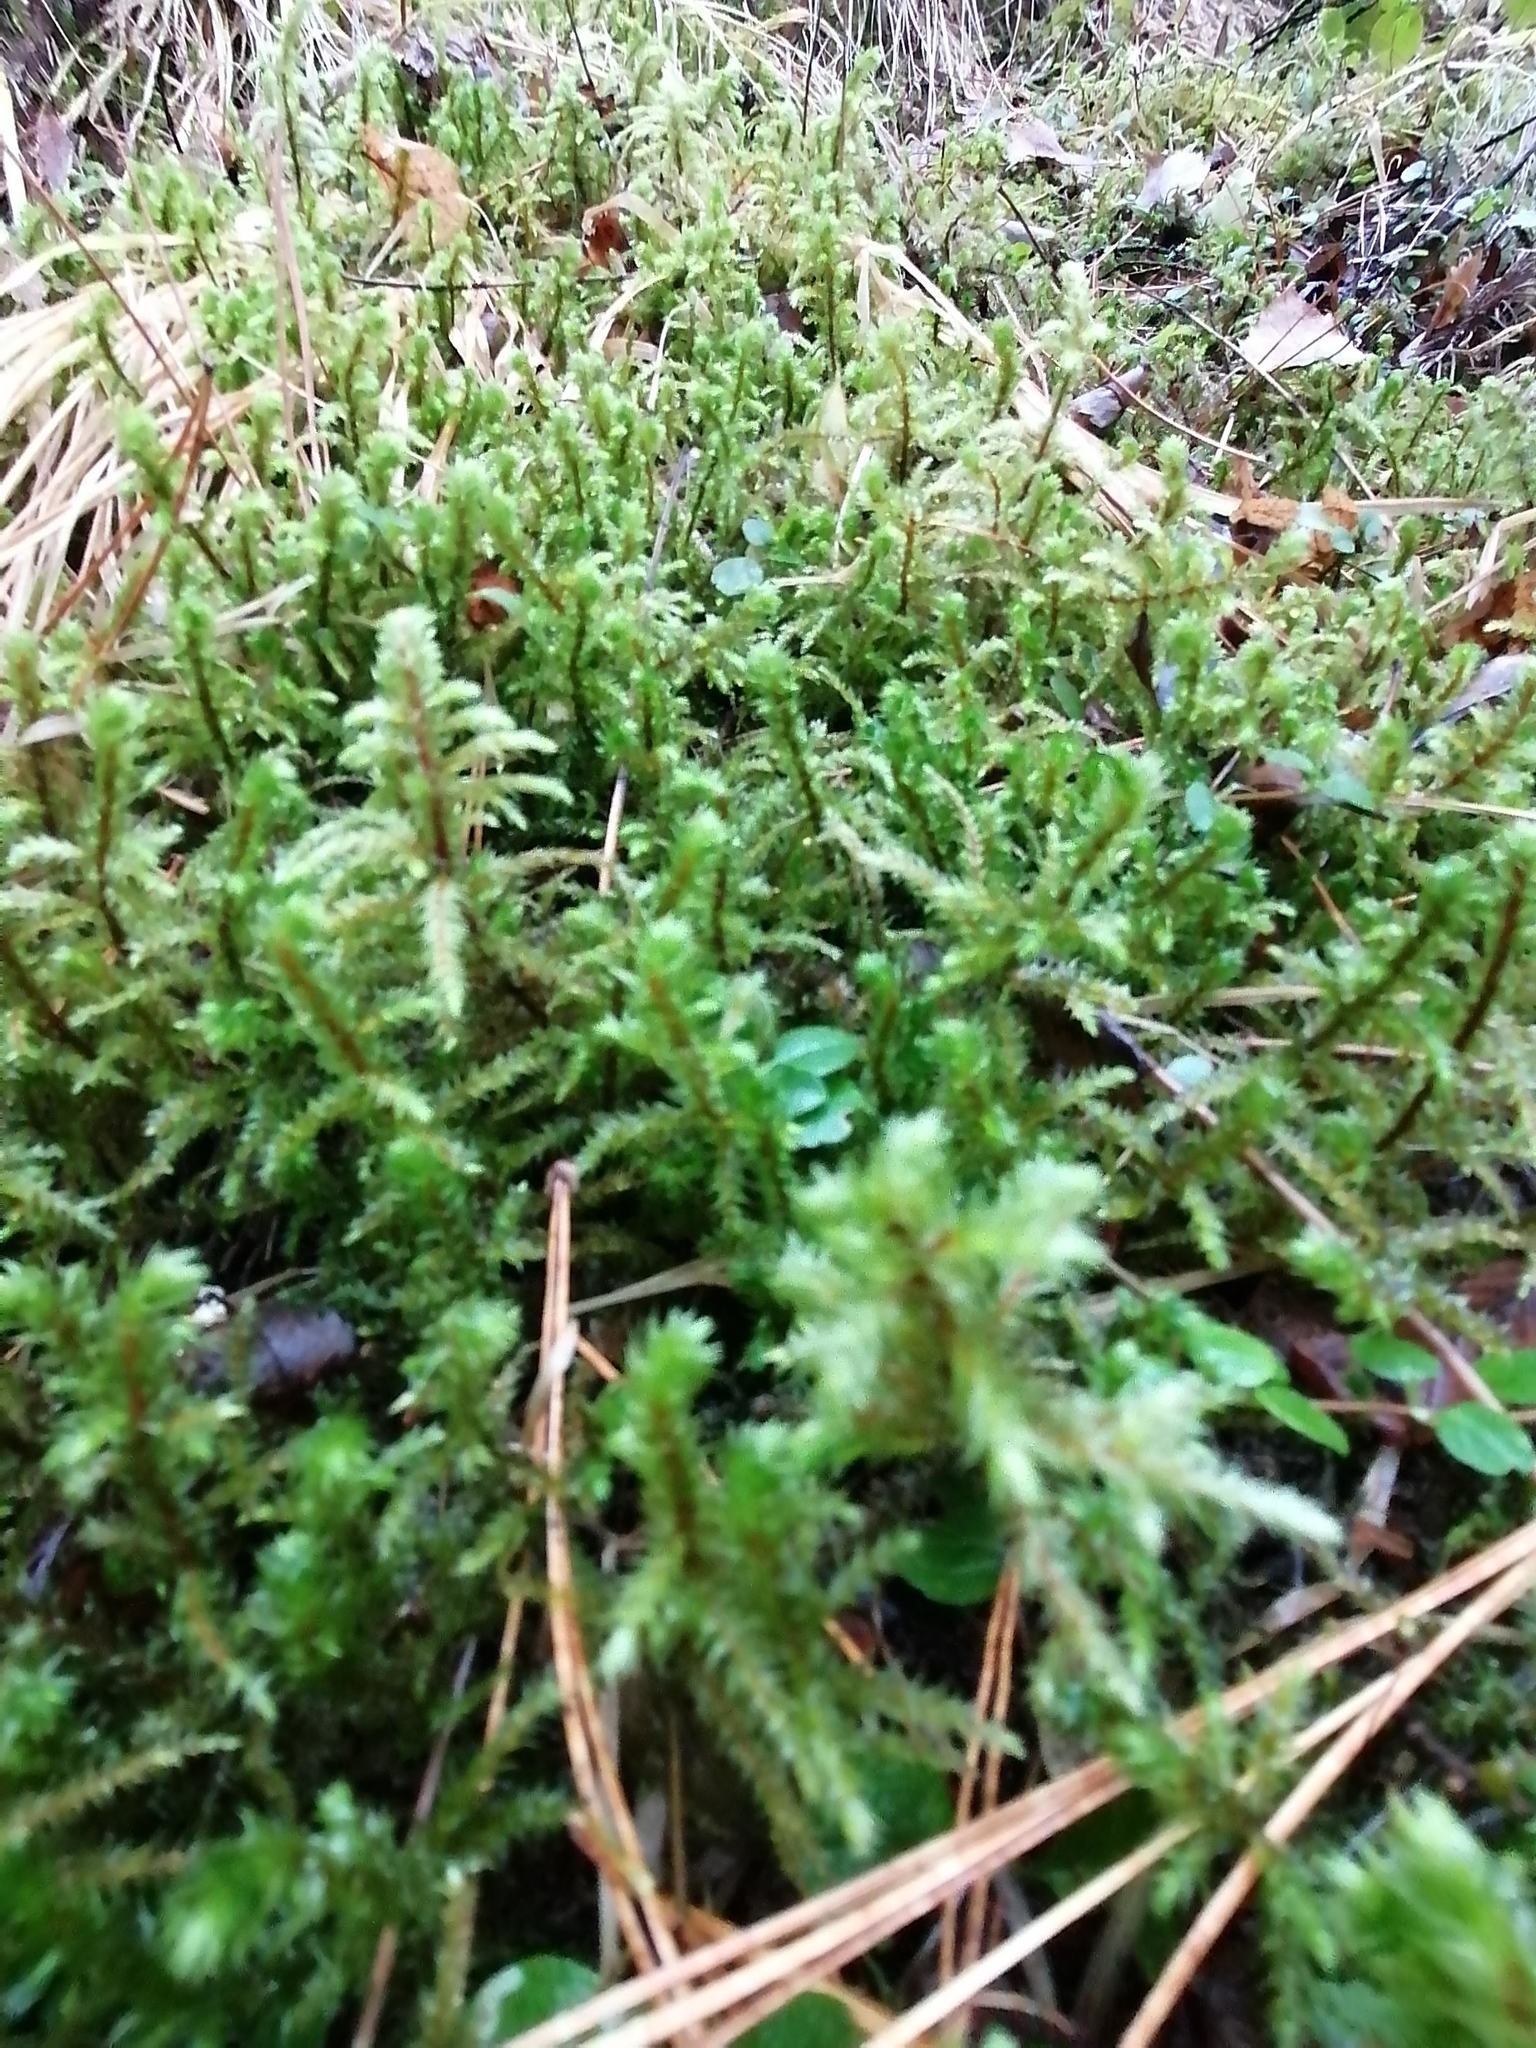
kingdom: Plantae
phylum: Bryophyta
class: Bryopsida
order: Hypnales
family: Hylocomiaceae
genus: Hylocomiadelphus
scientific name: Hylocomiadelphus triquetrus
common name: Rough goose neck moss
